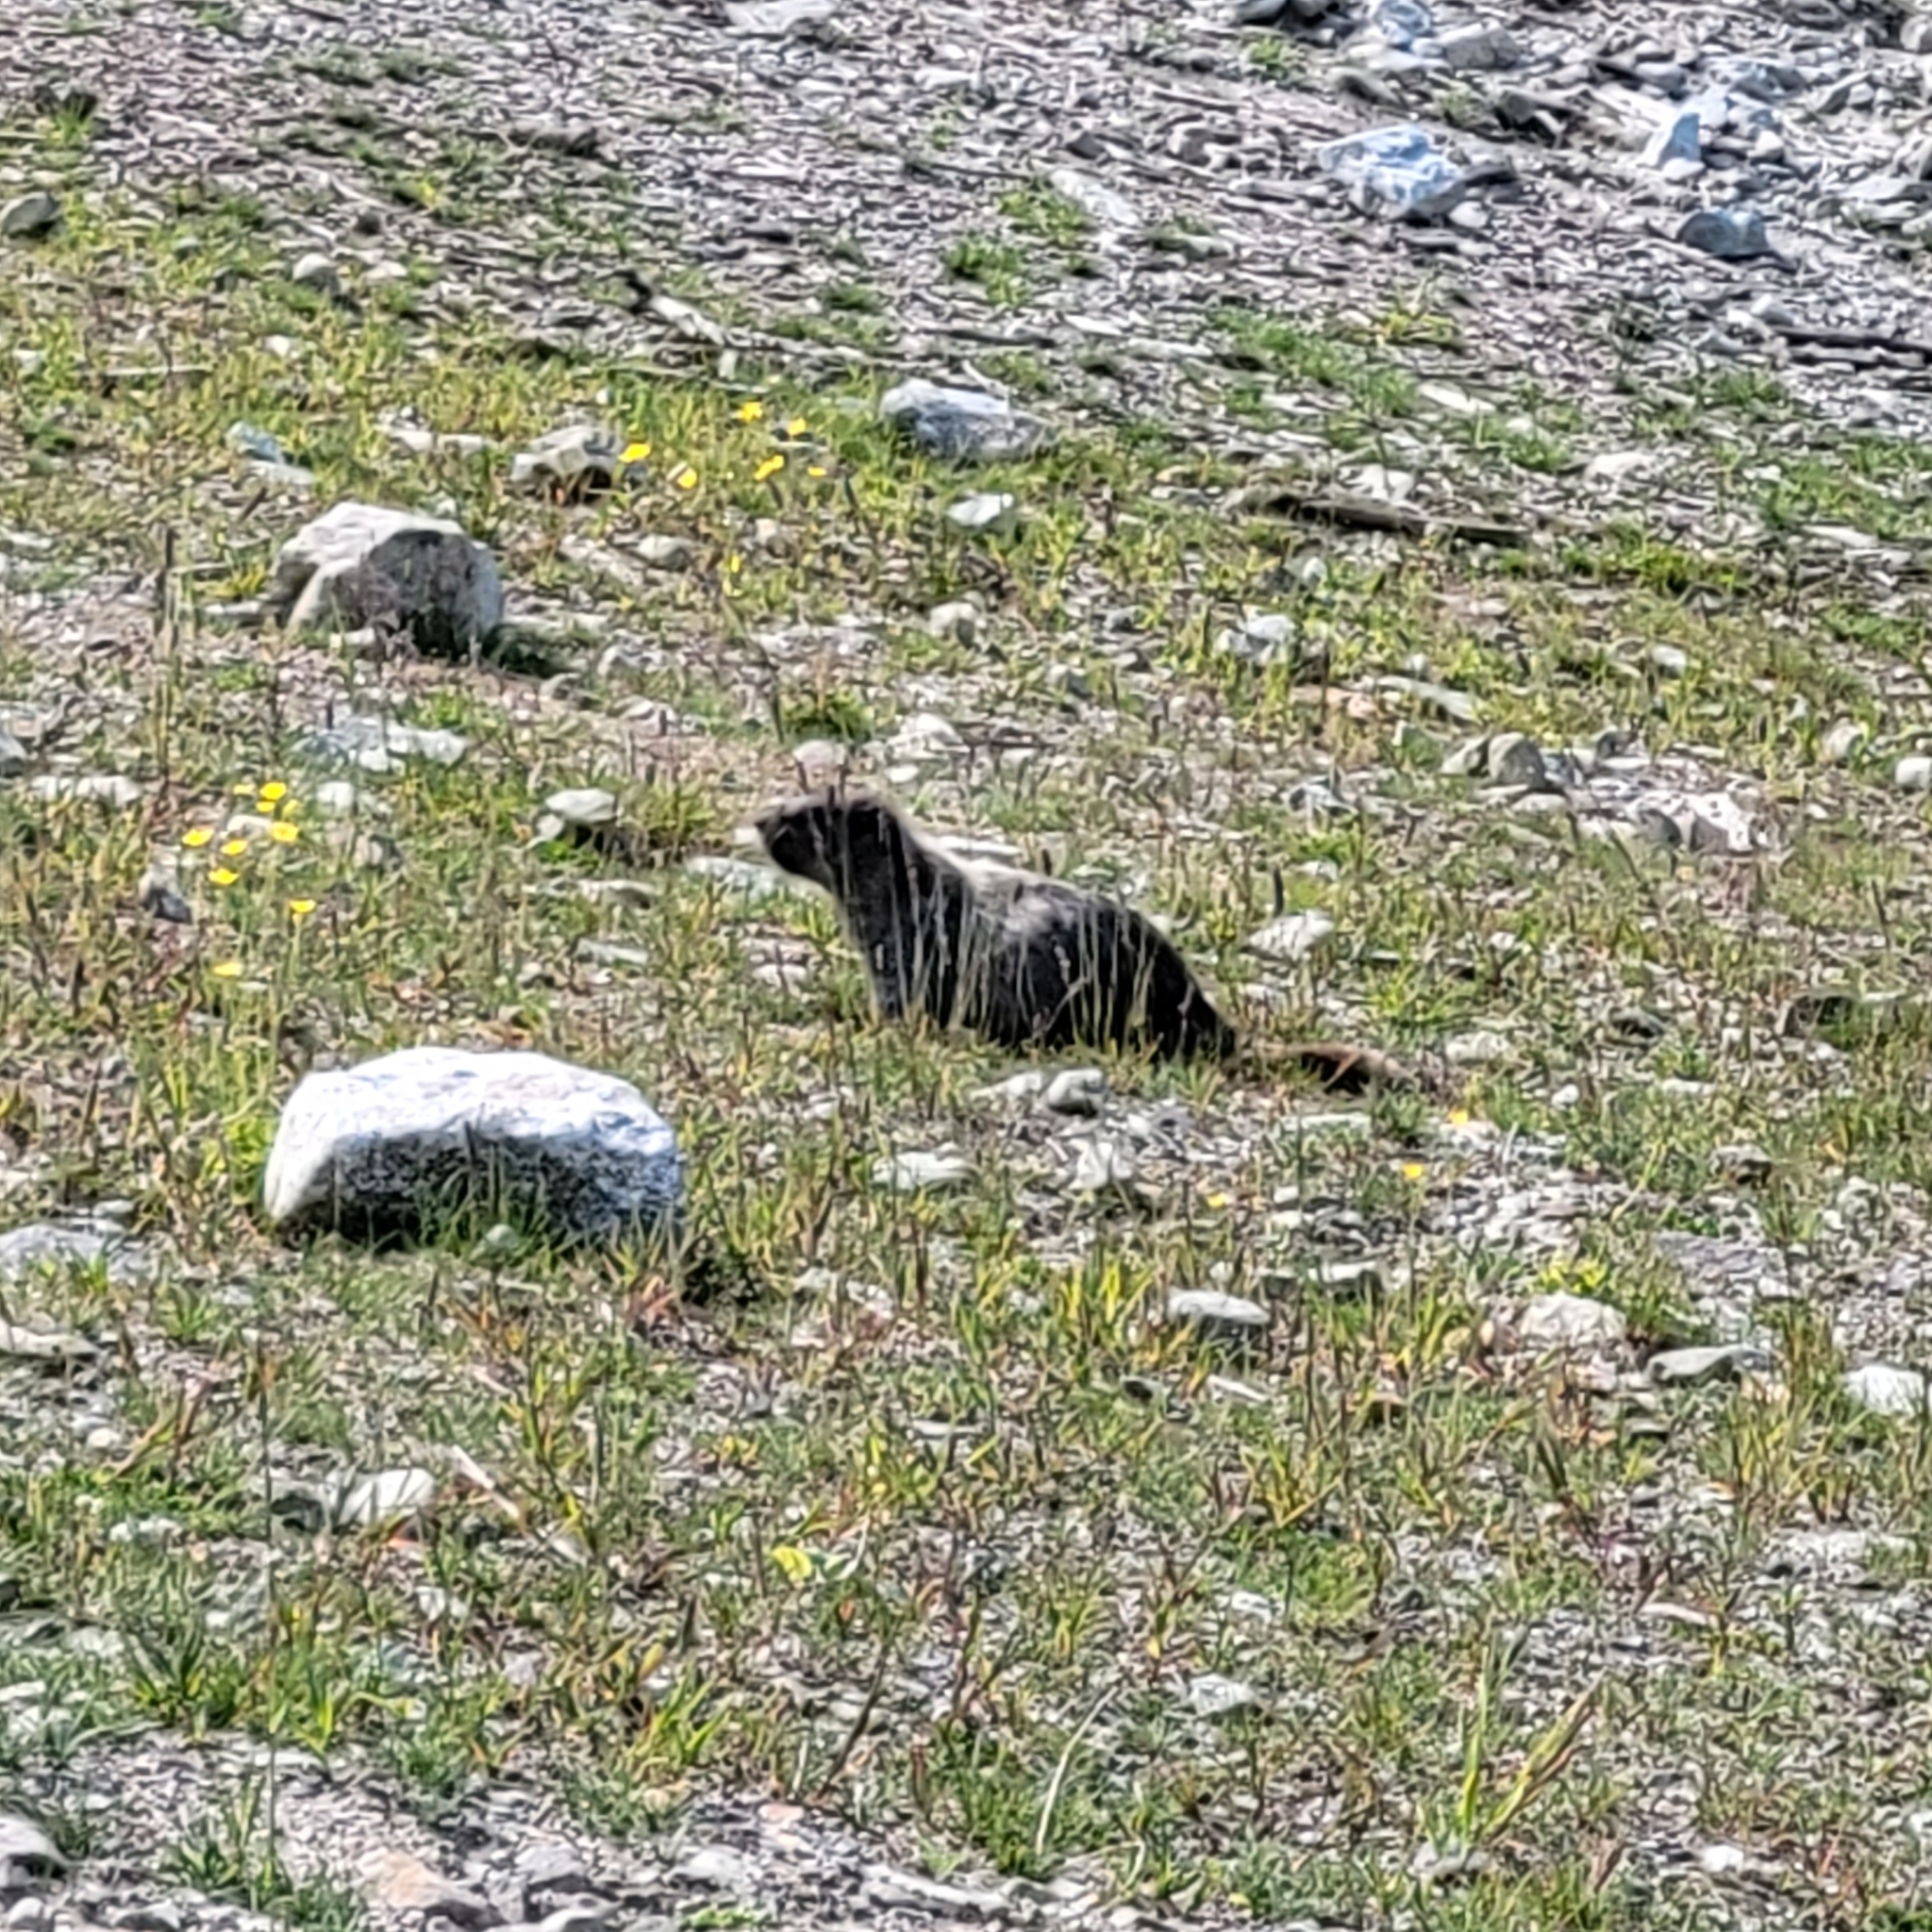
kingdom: Animalia
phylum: Chordata
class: Mammalia
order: Rodentia
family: Sciuridae
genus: Marmota
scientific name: Marmota caligata
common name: Hoary marmot
